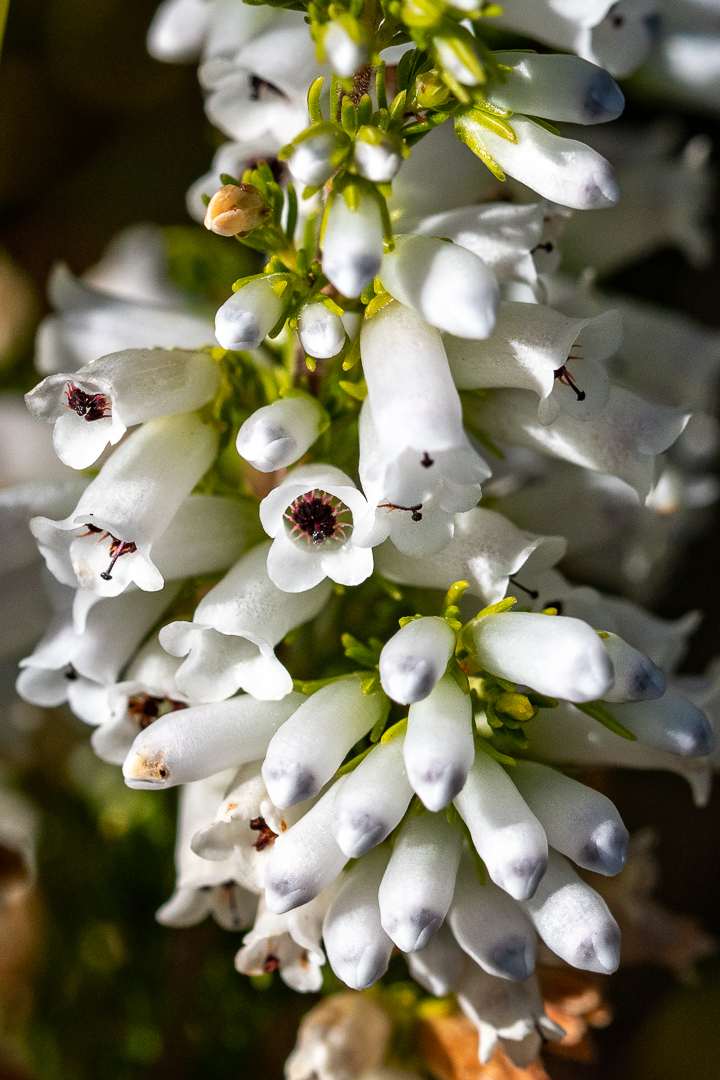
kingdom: Plantae
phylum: Tracheophyta
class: Magnoliopsida
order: Ericales
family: Ericaceae
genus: Erica
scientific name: Erica sitiens
